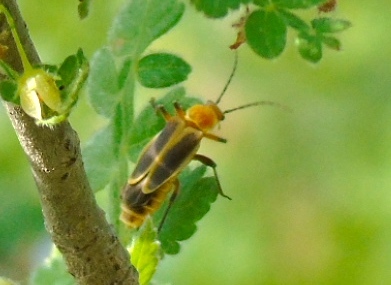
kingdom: Animalia
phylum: Arthropoda
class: Insecta
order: Coleoptera
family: Cantharidae
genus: Chauliognathus
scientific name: Chauliognathus
